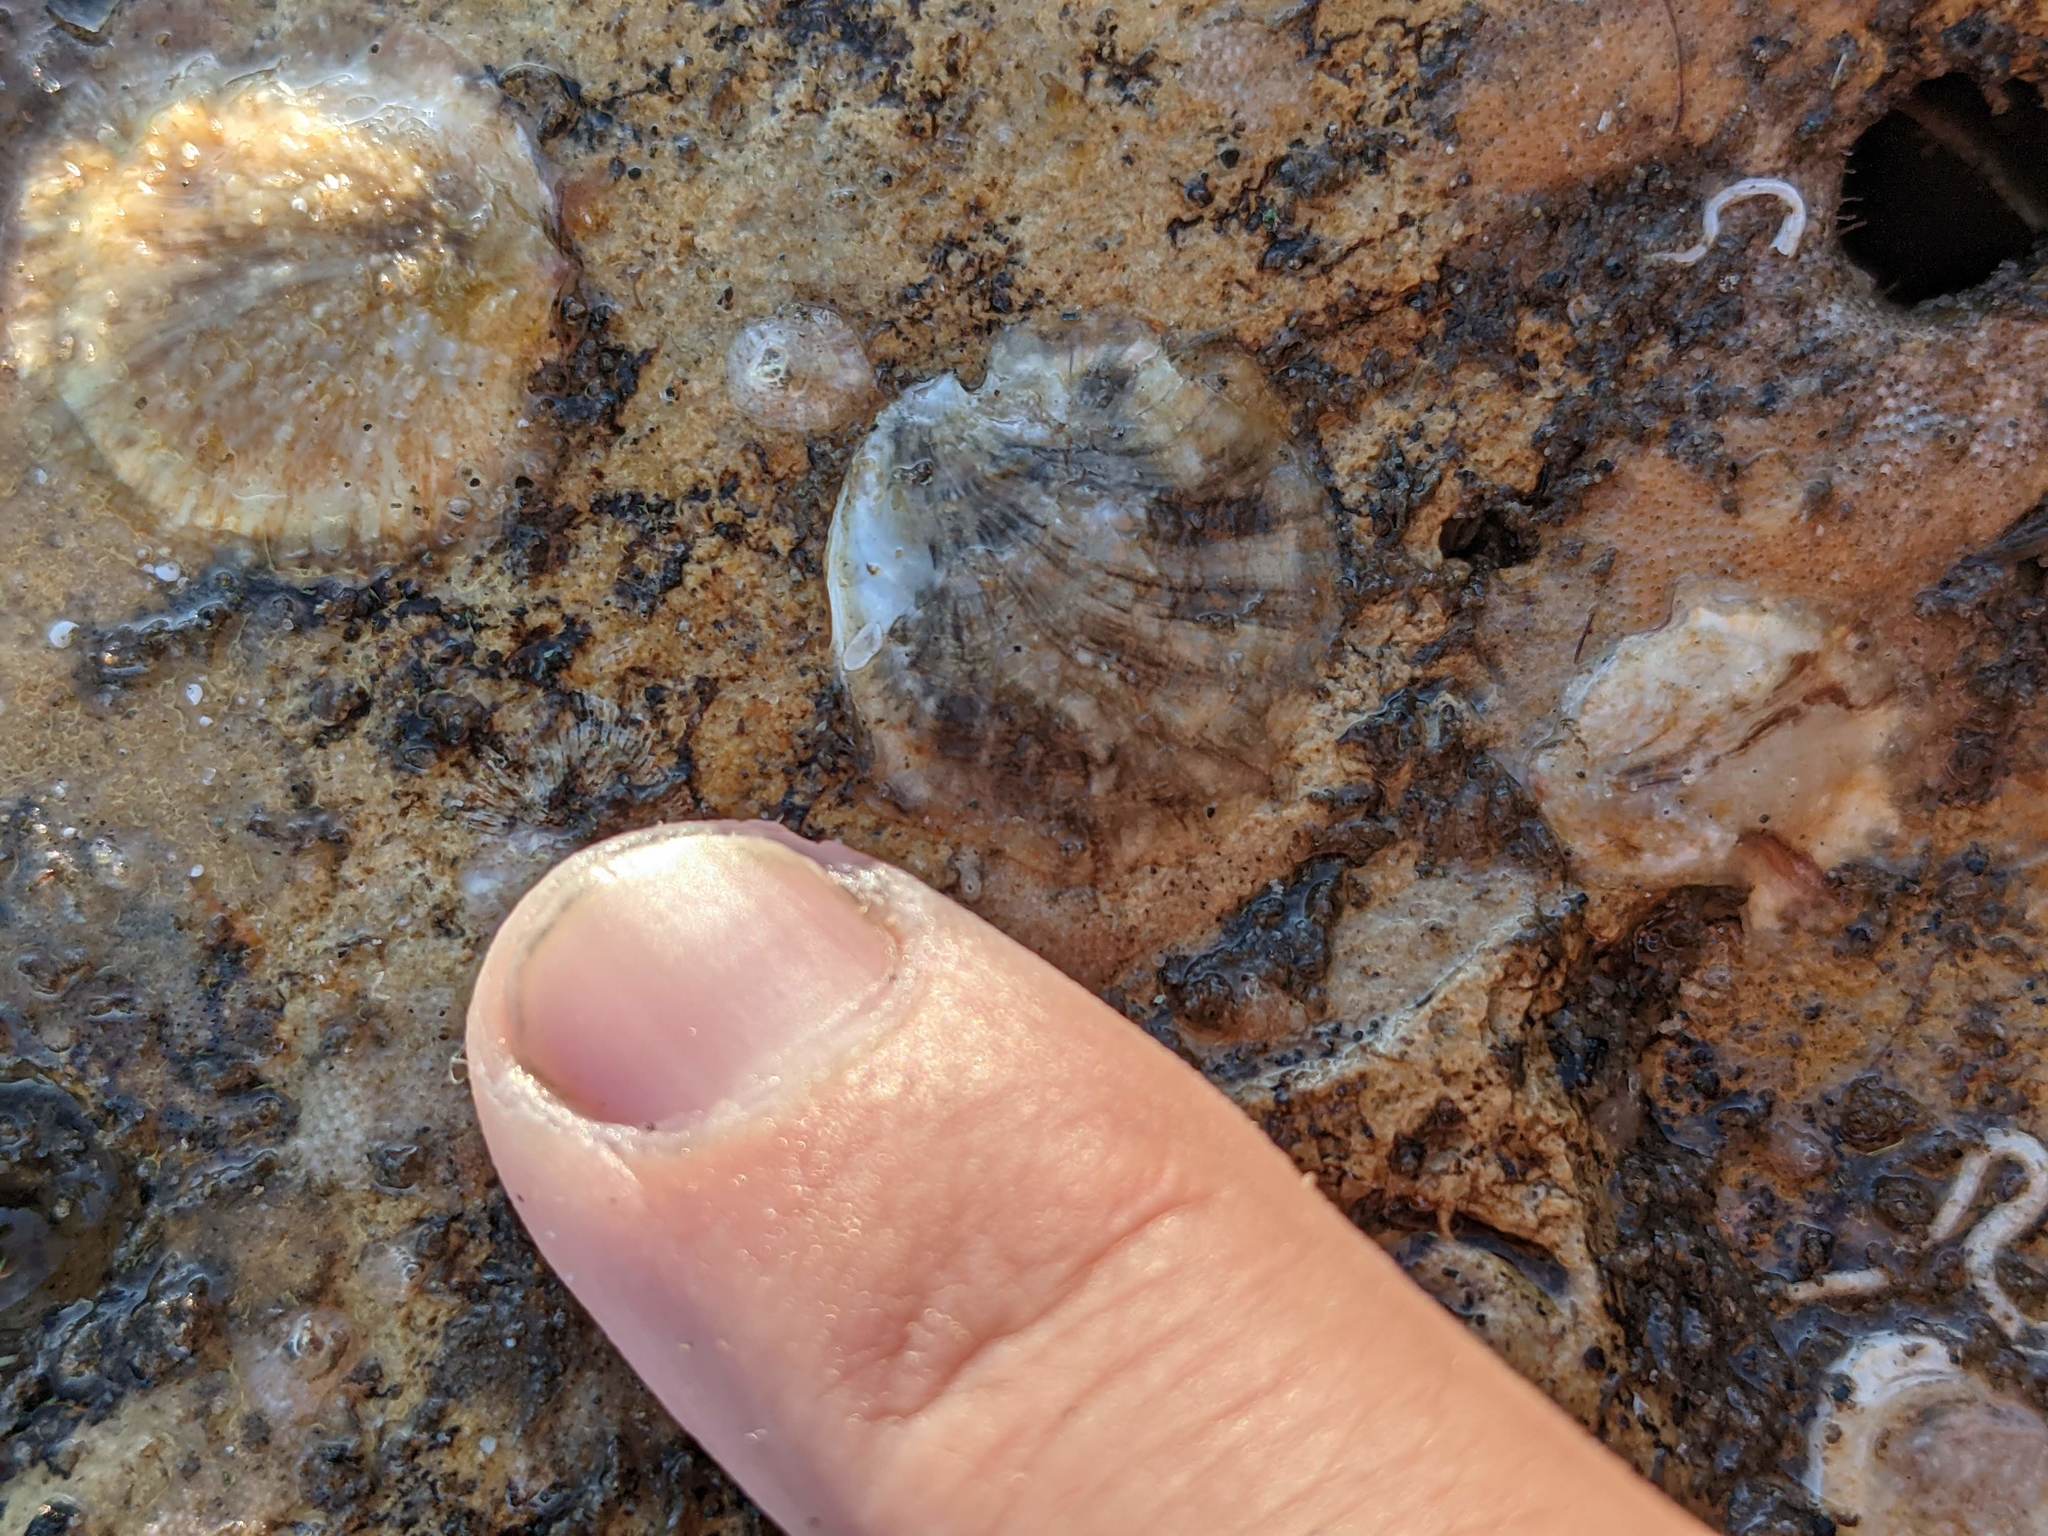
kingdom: Animalia
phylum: Mollusca
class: Gastropoda
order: Littorinimorpha
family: Calyptraeidae
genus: Crepipatella
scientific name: Crepipatella lingulata
